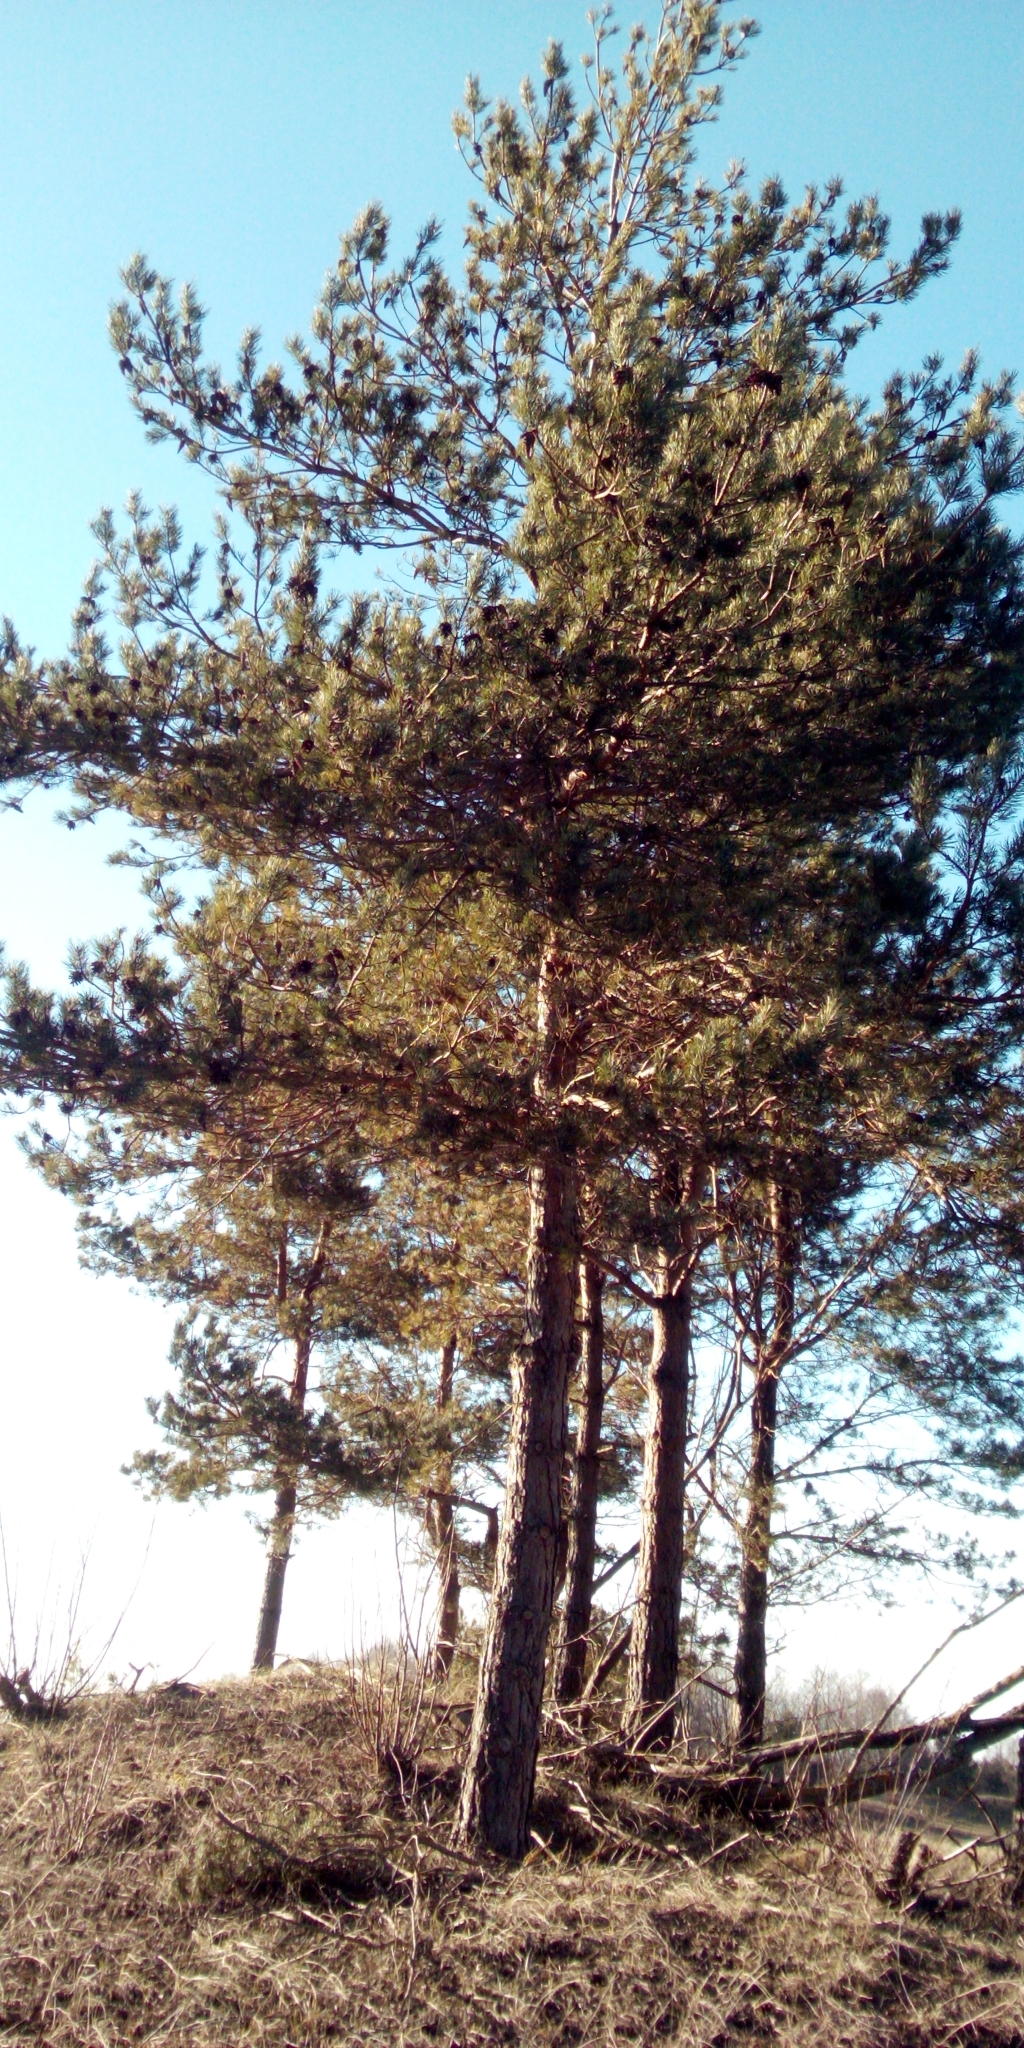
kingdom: Plantae
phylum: Tracheophyta
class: Pinopsida
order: Pinales
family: Pinaceae
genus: Pinus
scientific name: Pinus sylvestris
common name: Scots pine
